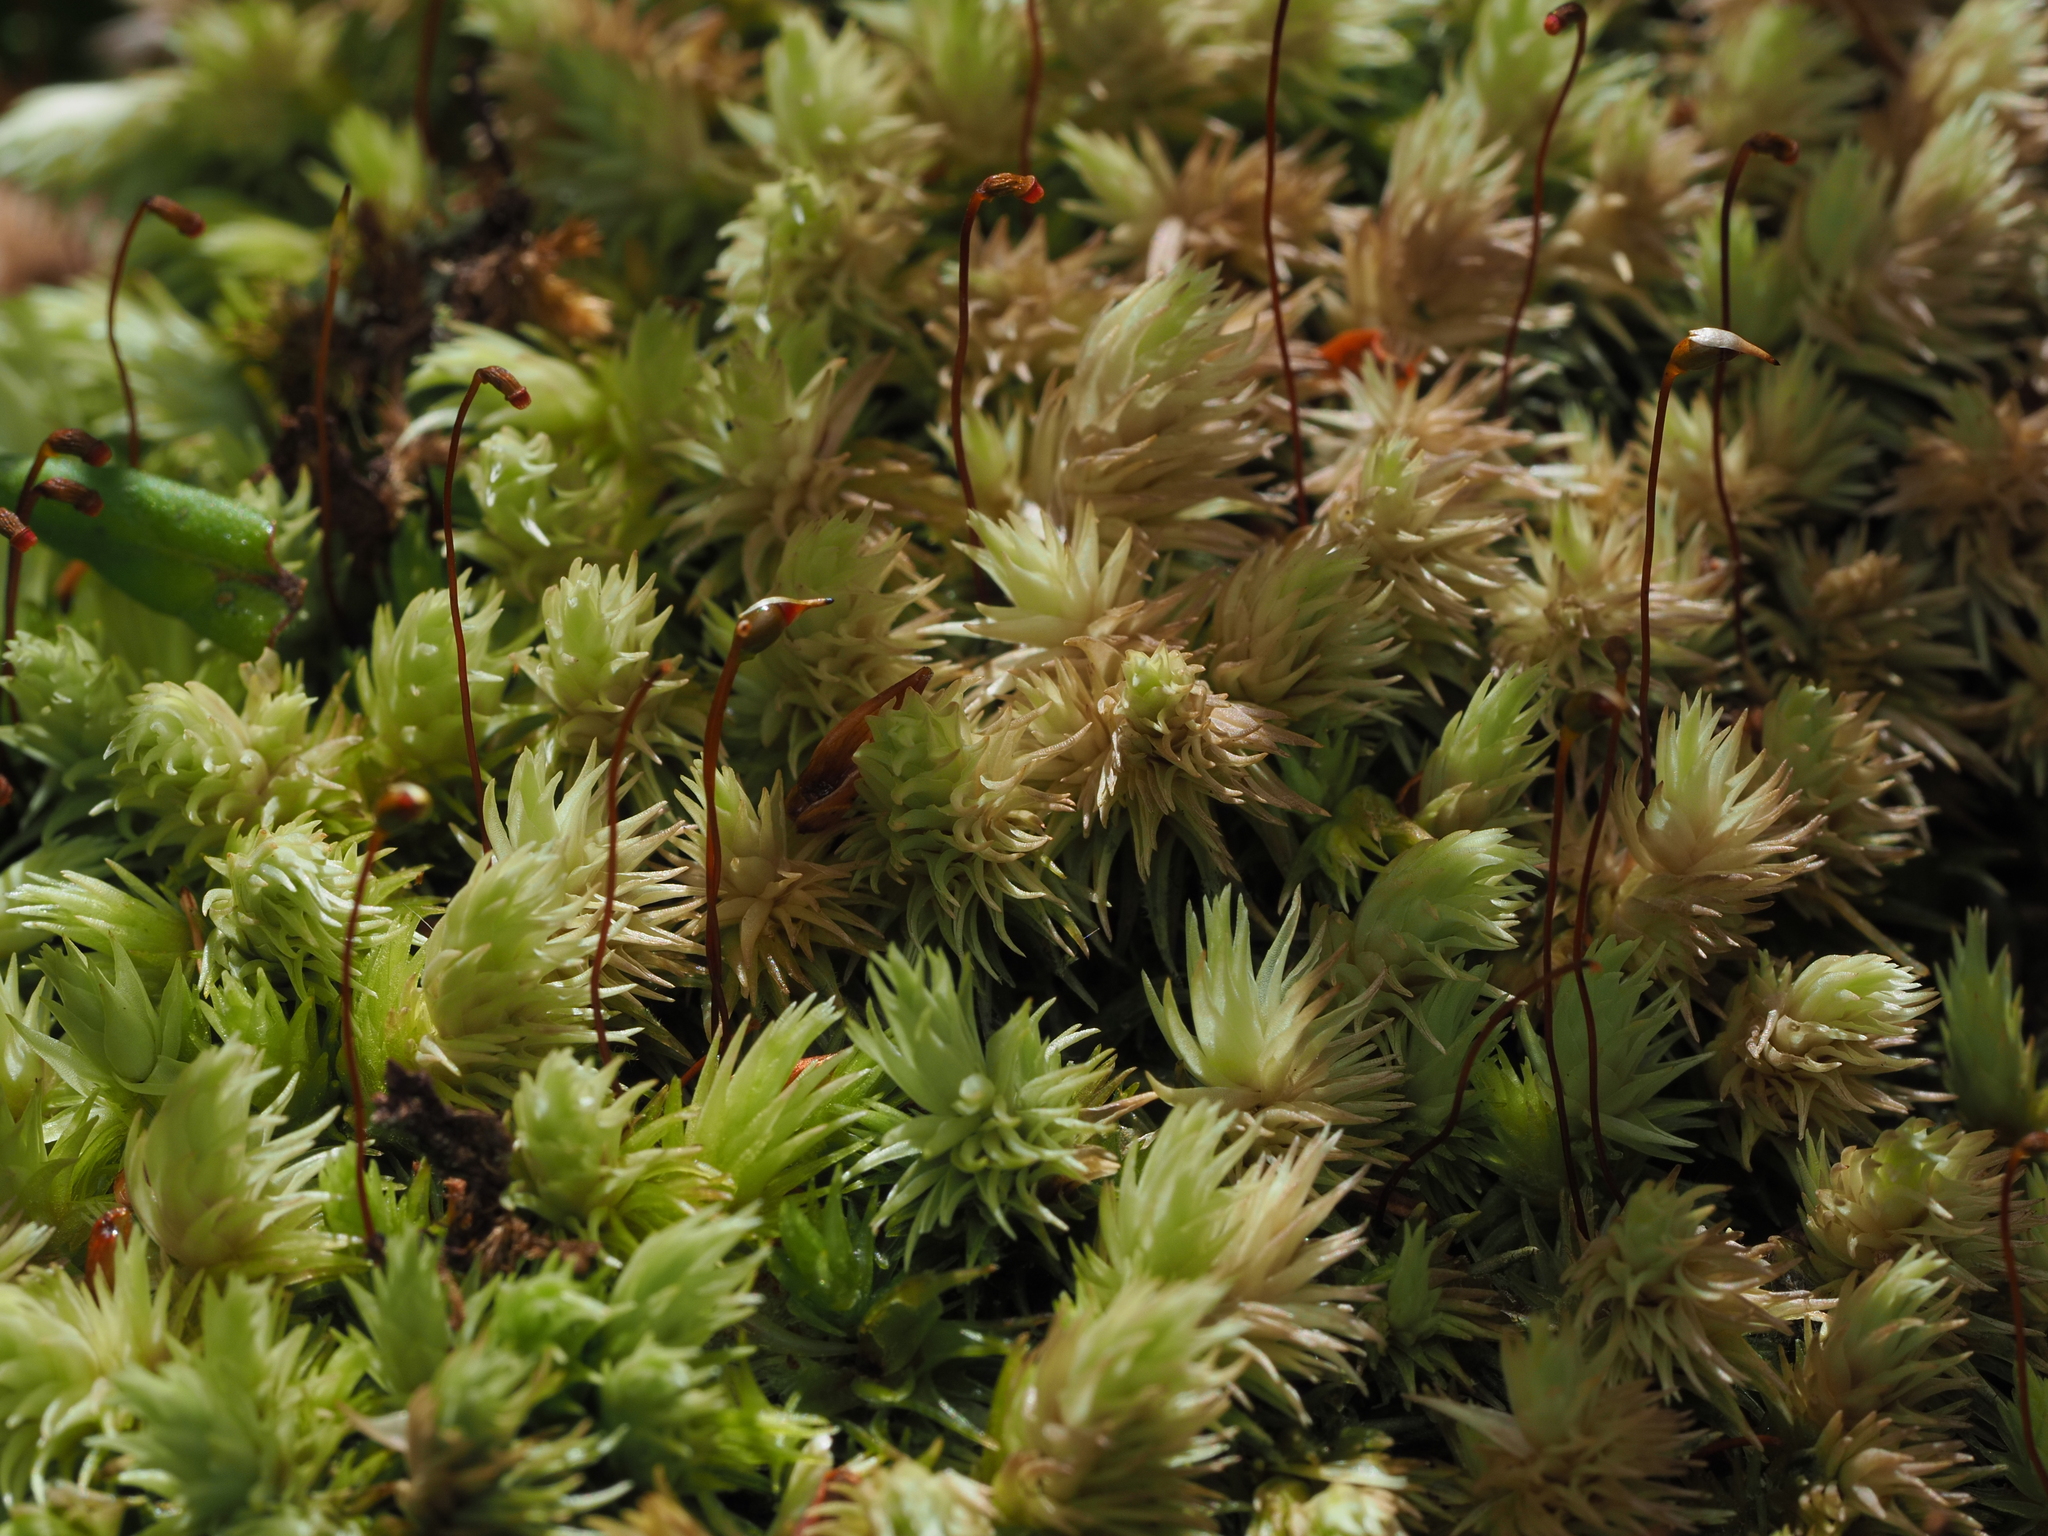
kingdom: Plantae
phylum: Bryophyta
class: Bryopsida
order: Dicranales
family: Leucobryaceae
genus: Leucobryum
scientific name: Leucobryum javense
